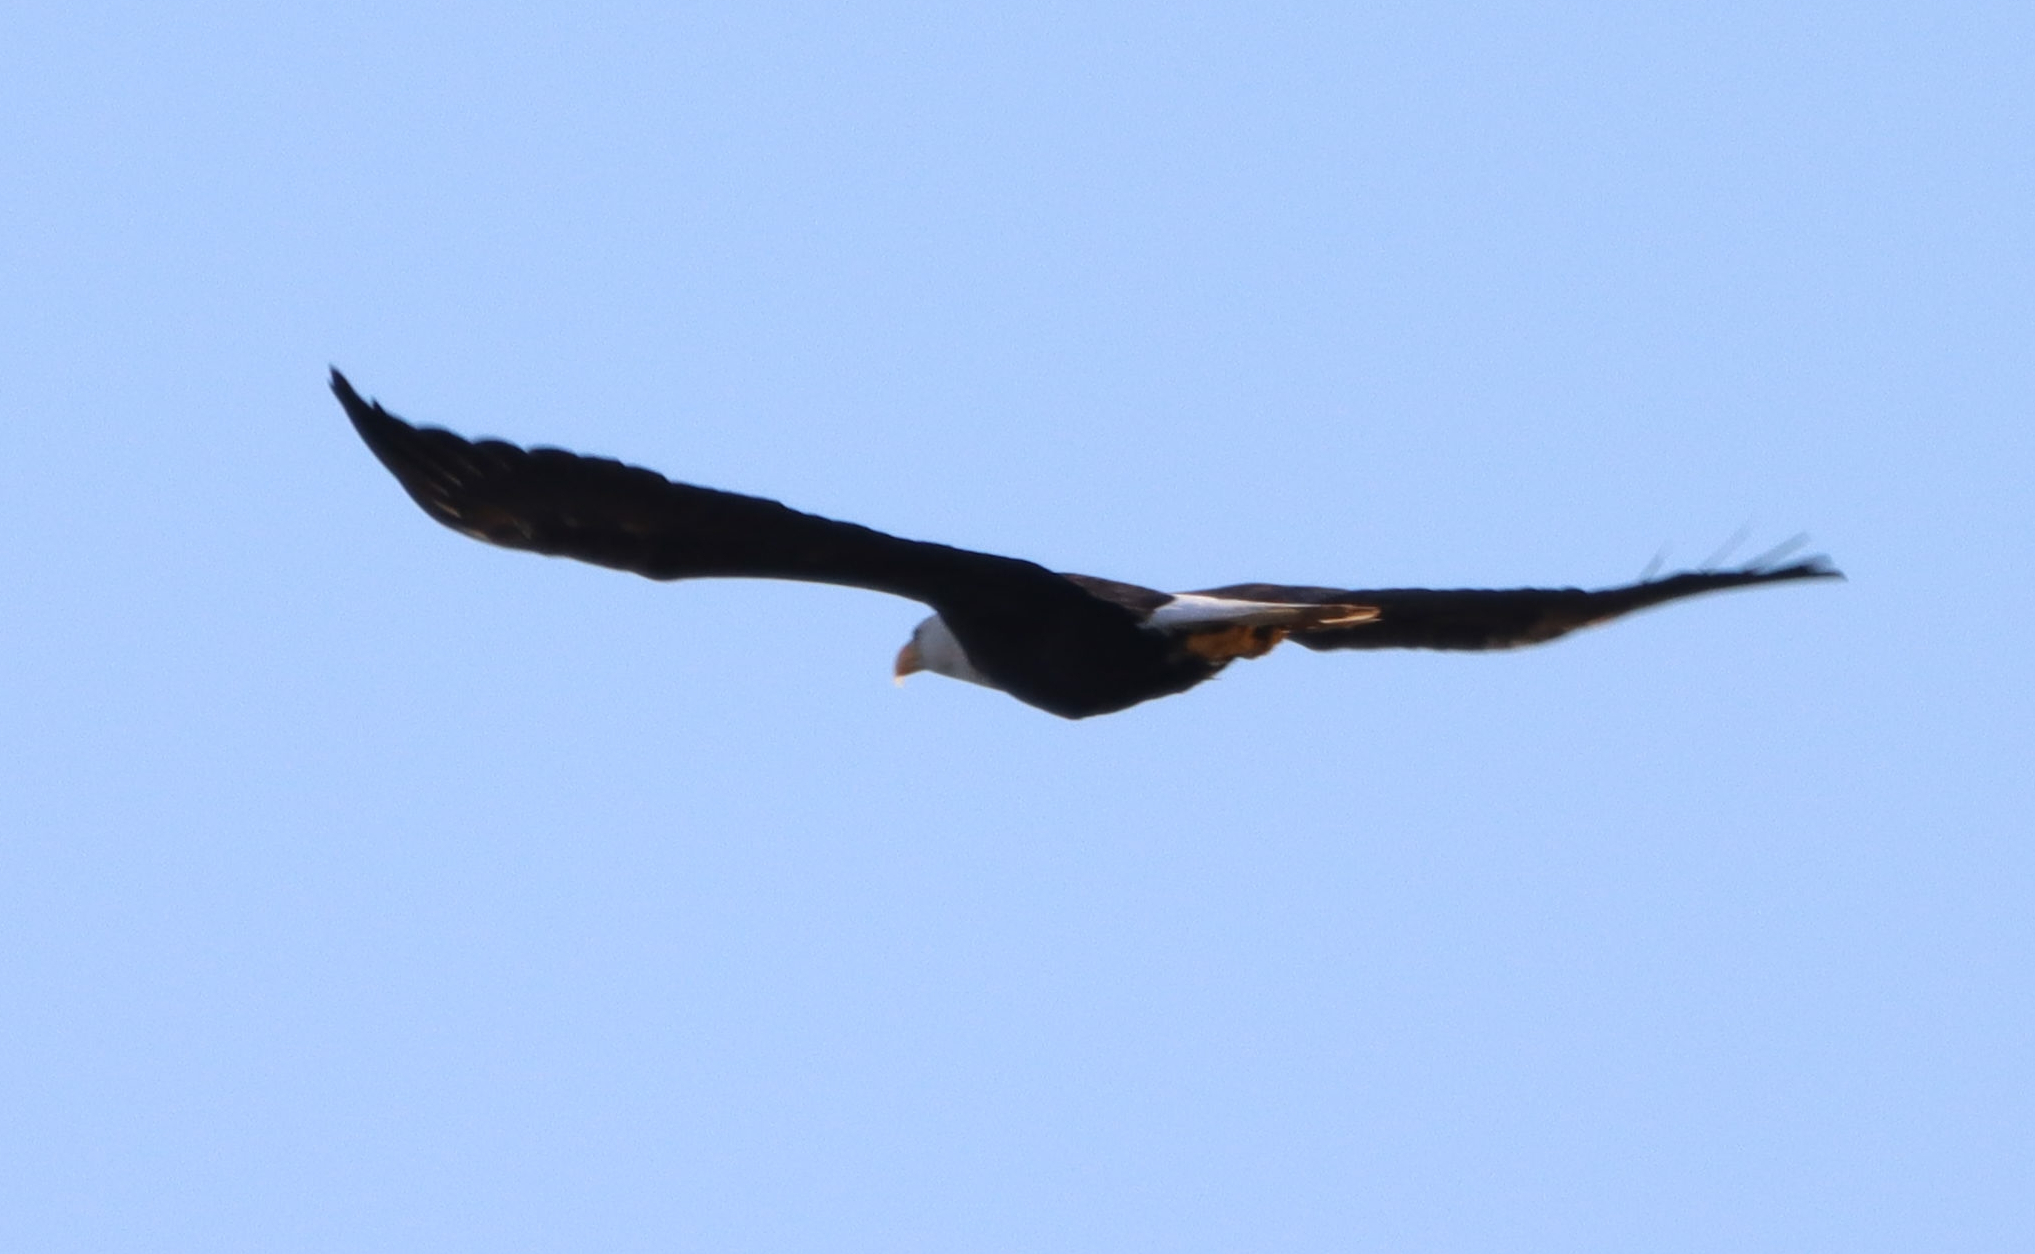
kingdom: Animalia
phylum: Chordata
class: Aves
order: Accipitriformes
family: Accipitridae
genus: Haliaeetus
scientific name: Haliaeetus leucocephalus
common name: Bald eagle
